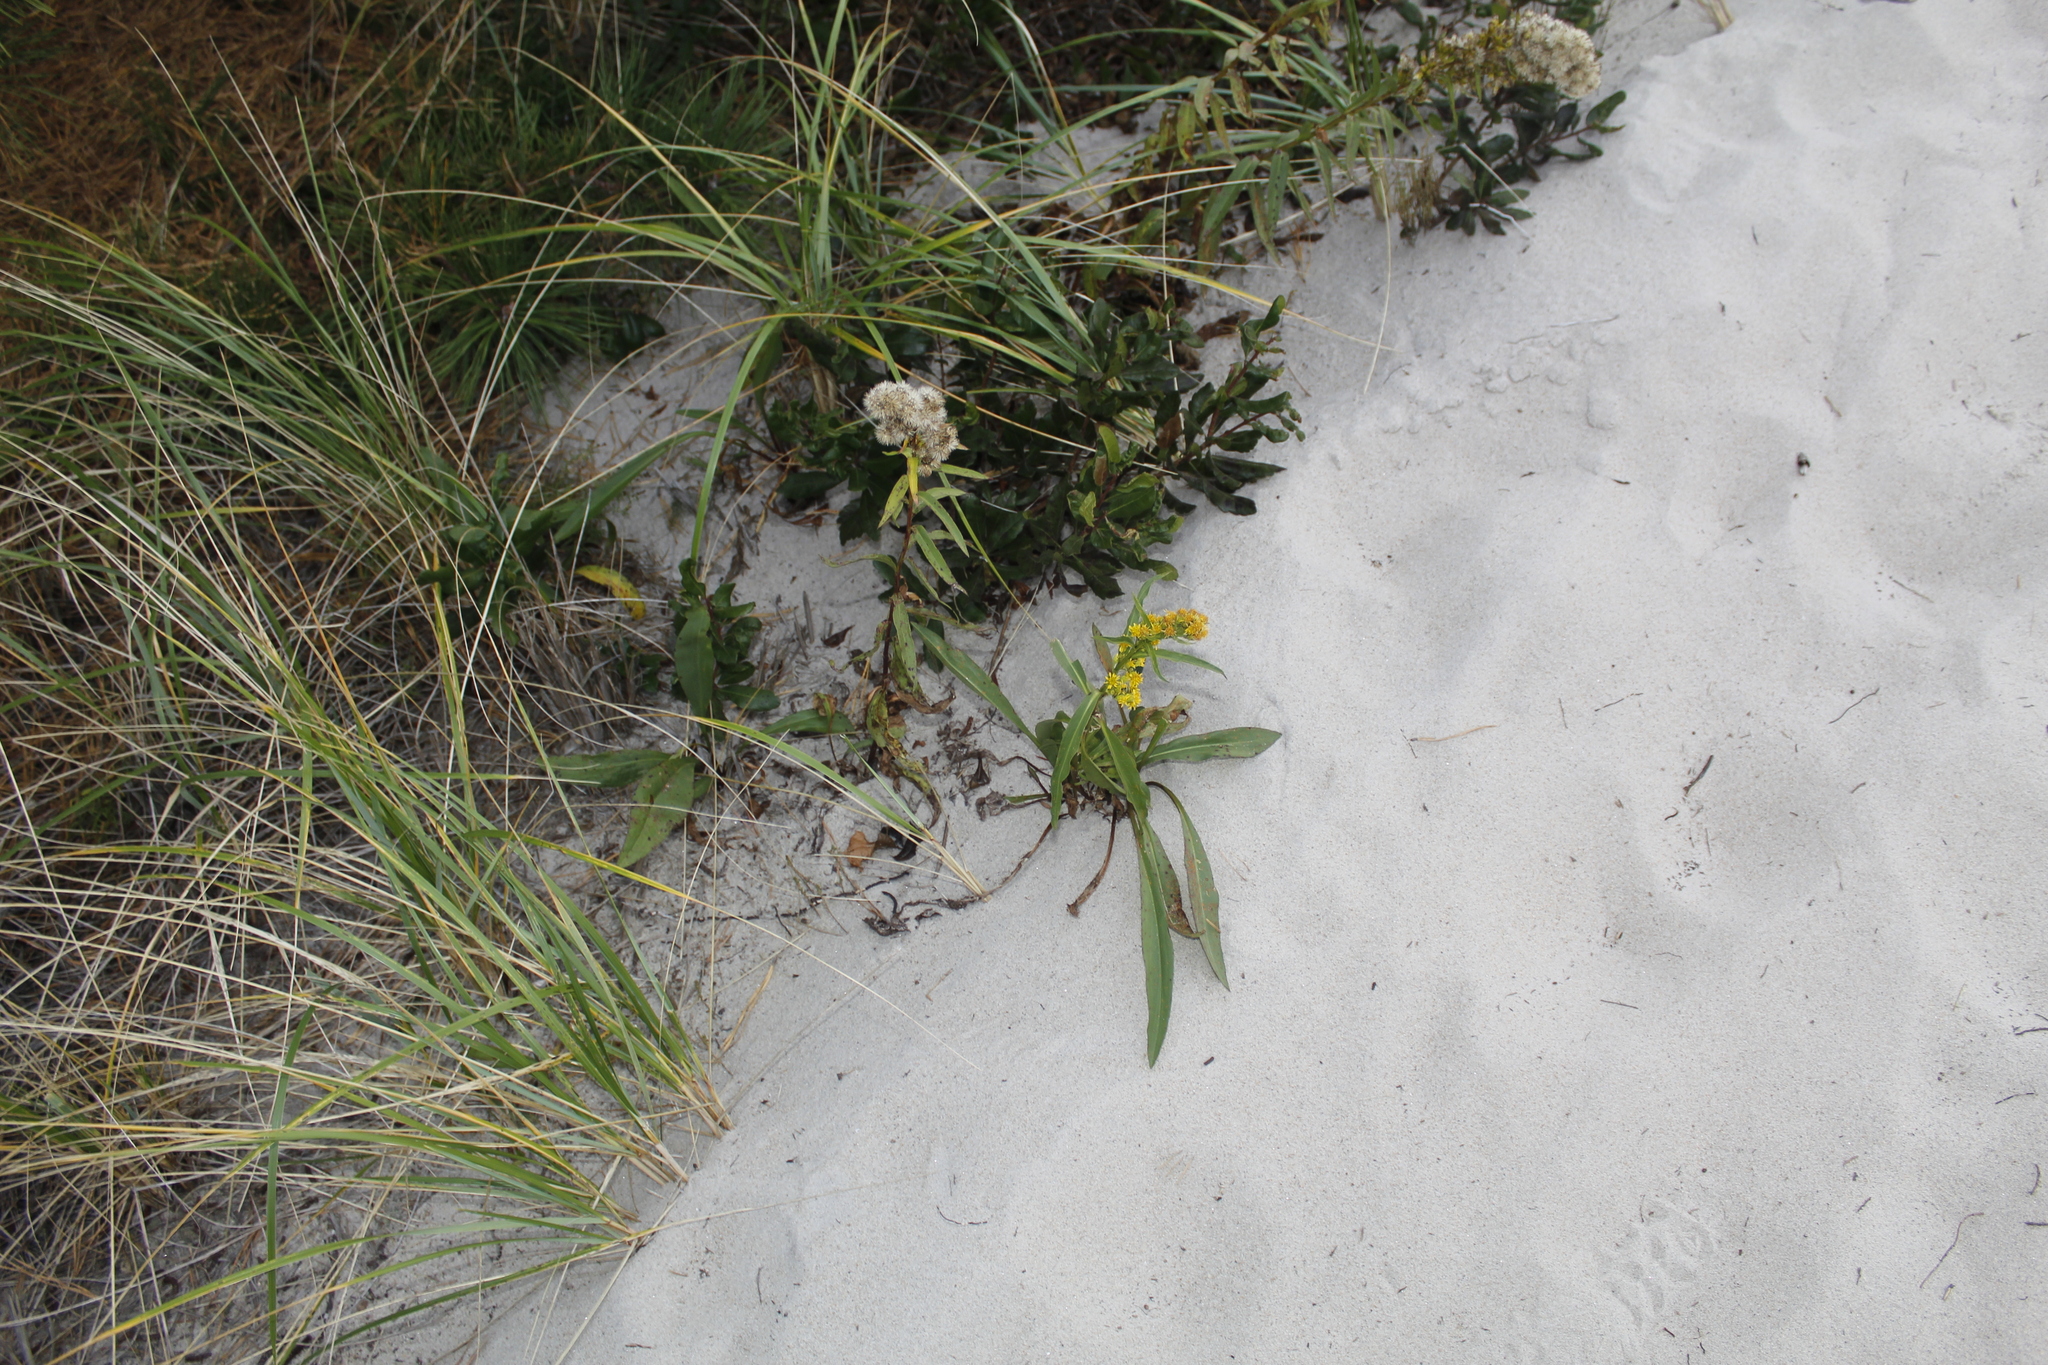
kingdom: Plantae
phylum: Tracheophyta
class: Magnoliopsida
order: Asterales
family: Asteraceae
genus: Solidago
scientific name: Solidago sempervirens
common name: Salt-marsh goldenrod
